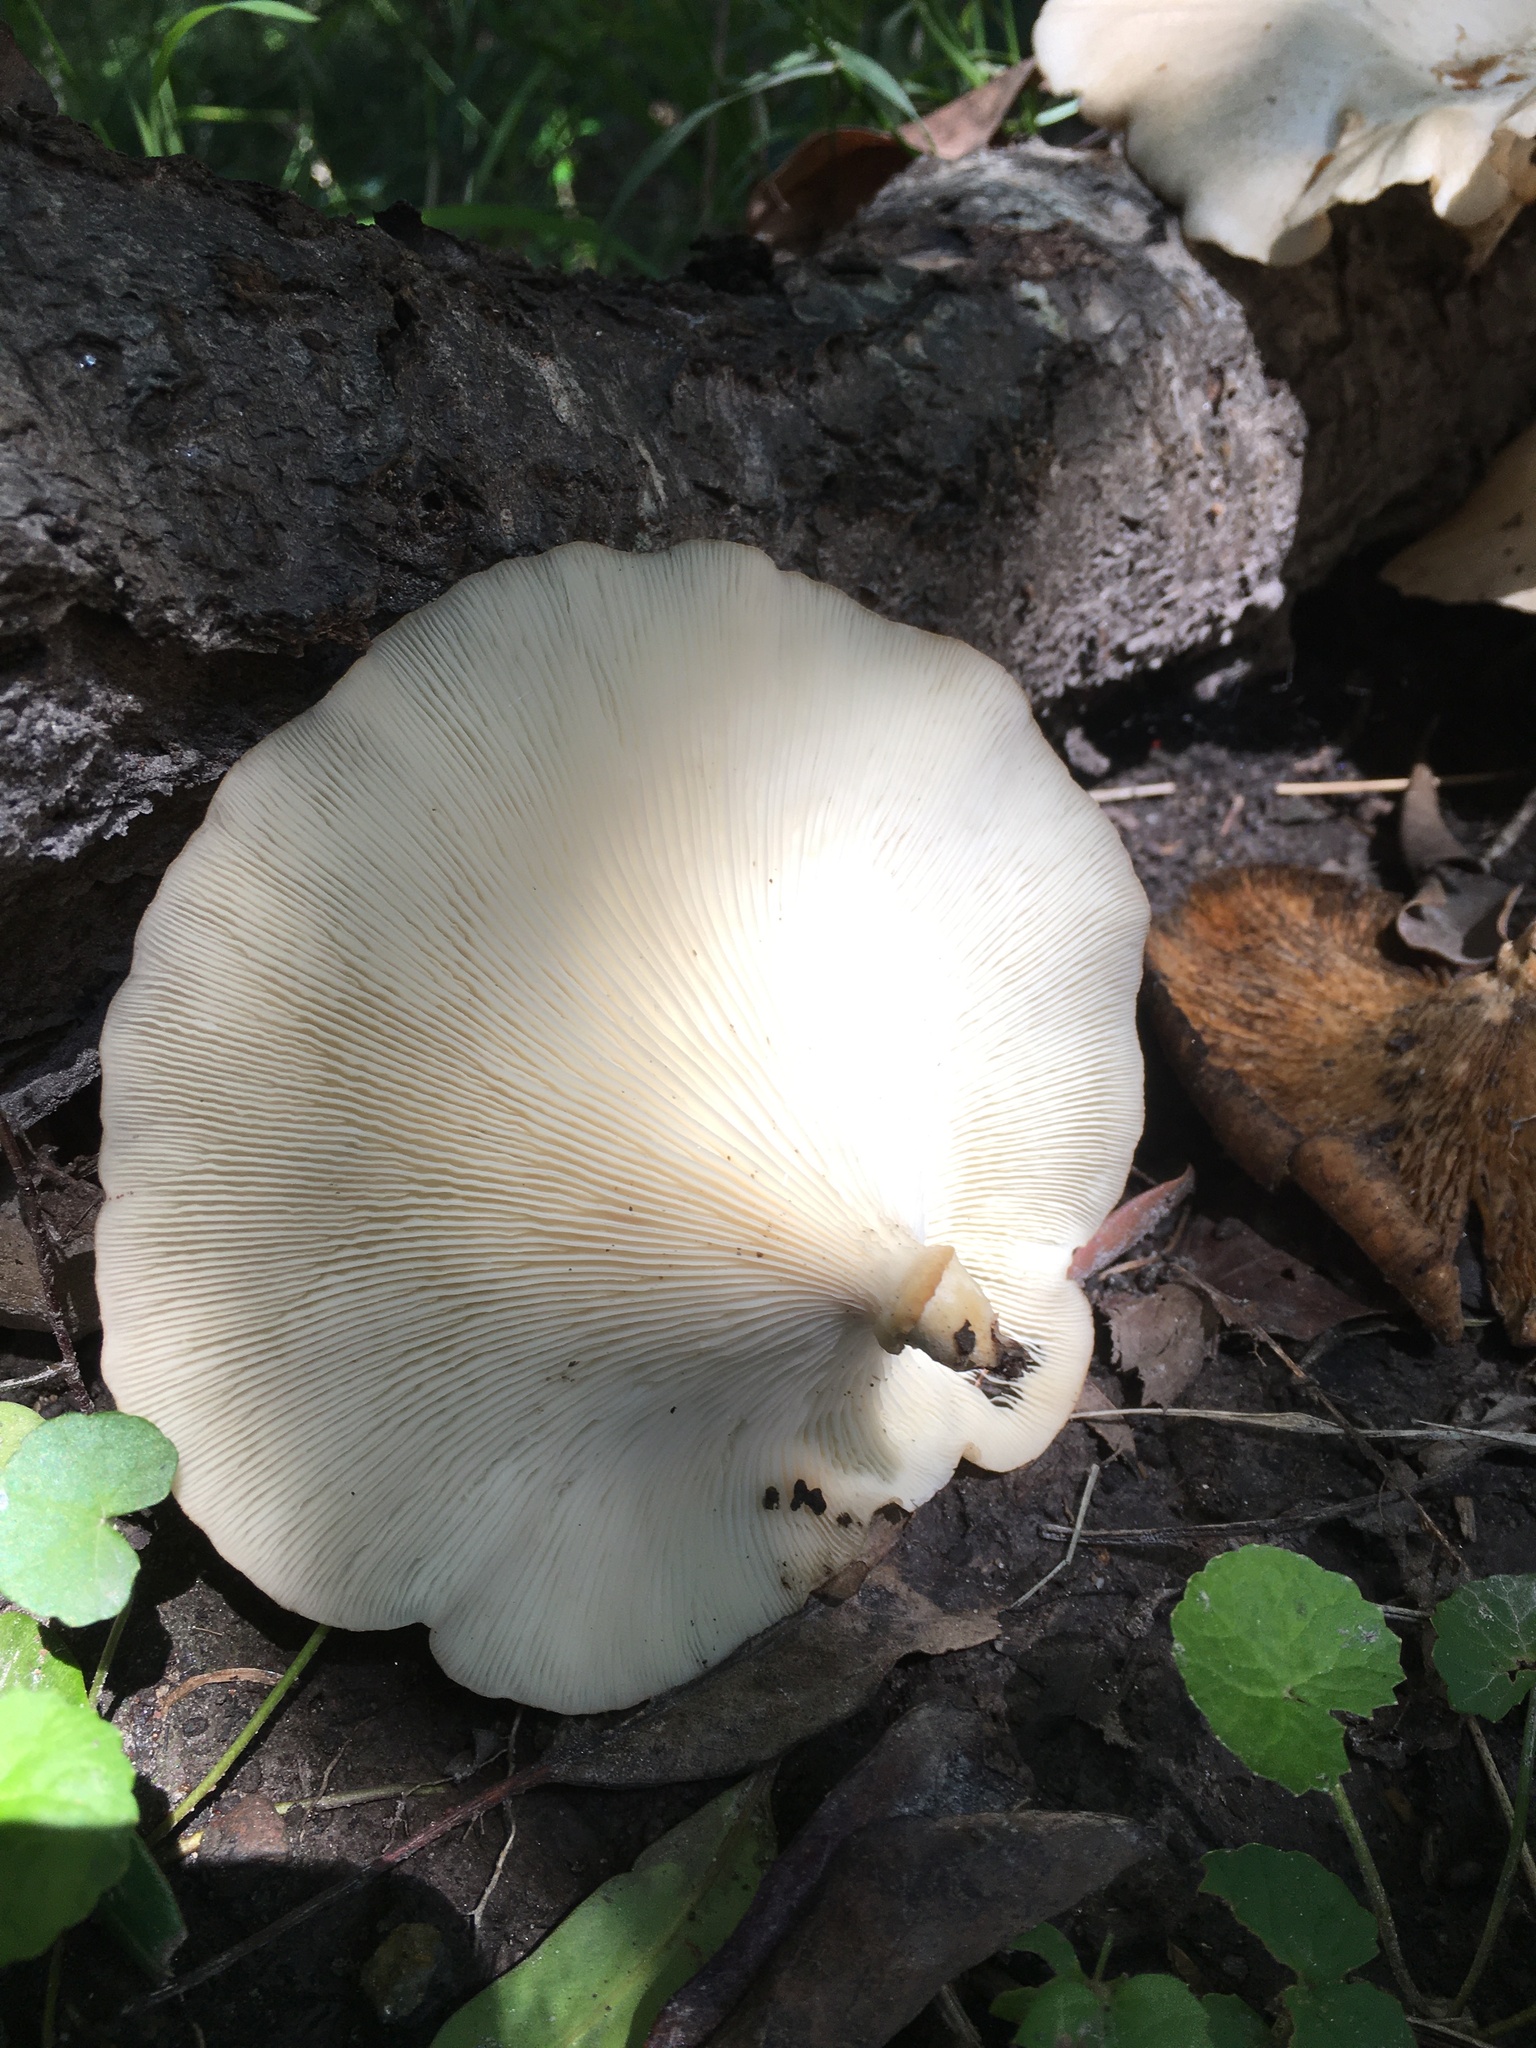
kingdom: Fungi
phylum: Basidiomycota
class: Agaricomycetes
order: Polyporales
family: Polyporaceae
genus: Lentinus
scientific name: Lentinus sajor-caju
